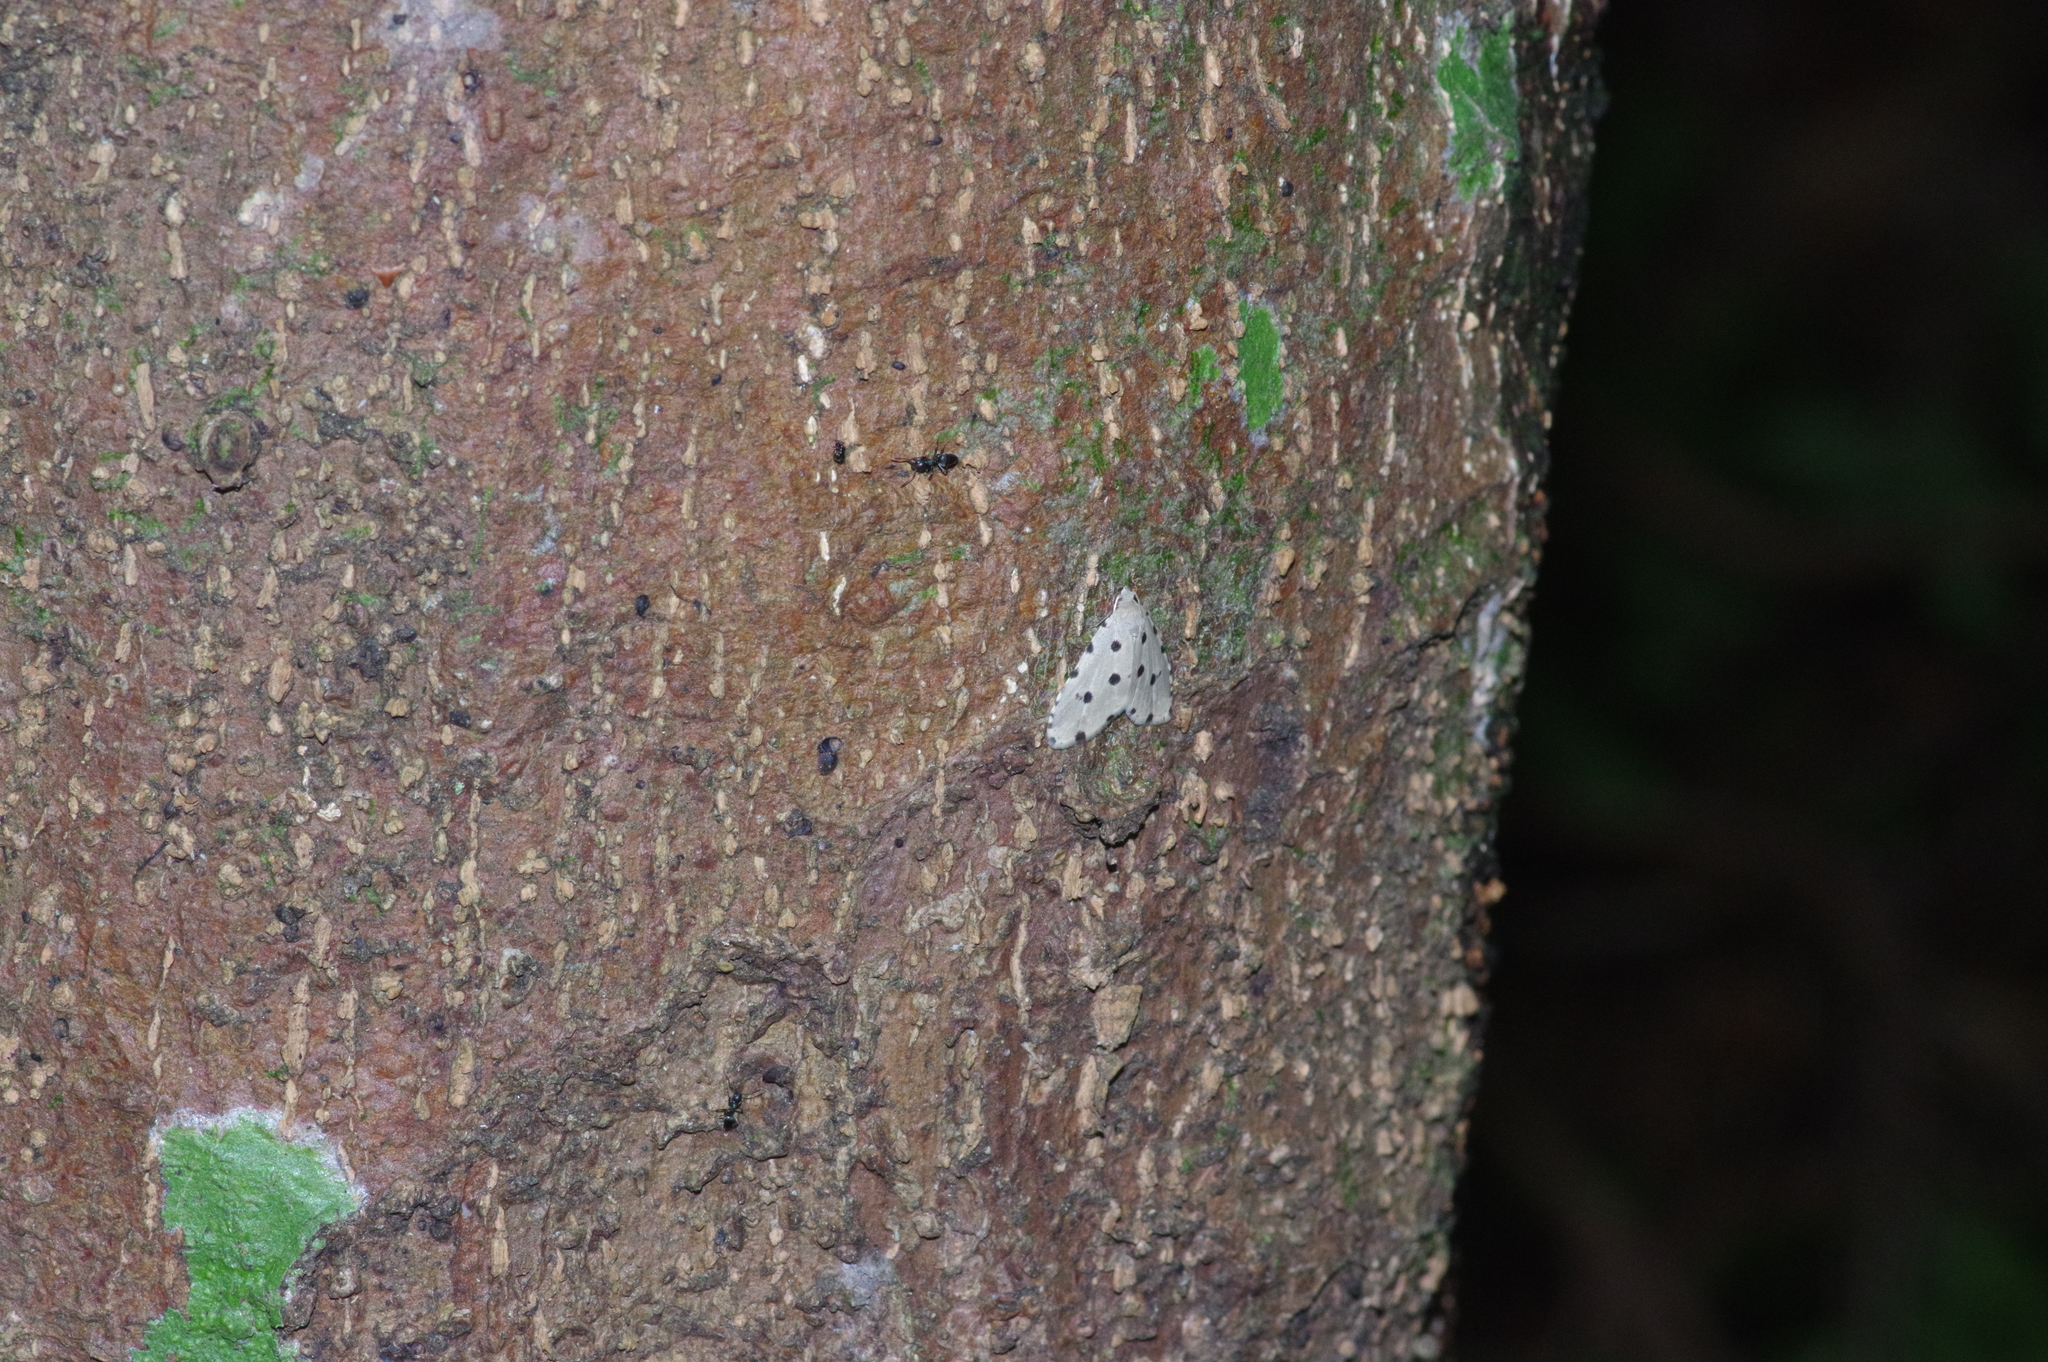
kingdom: Animalia
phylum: Arthropoda
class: Insecta
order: Lepidoptera
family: Noctuidae
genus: Metaemene
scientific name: Metaemene atrigutta
